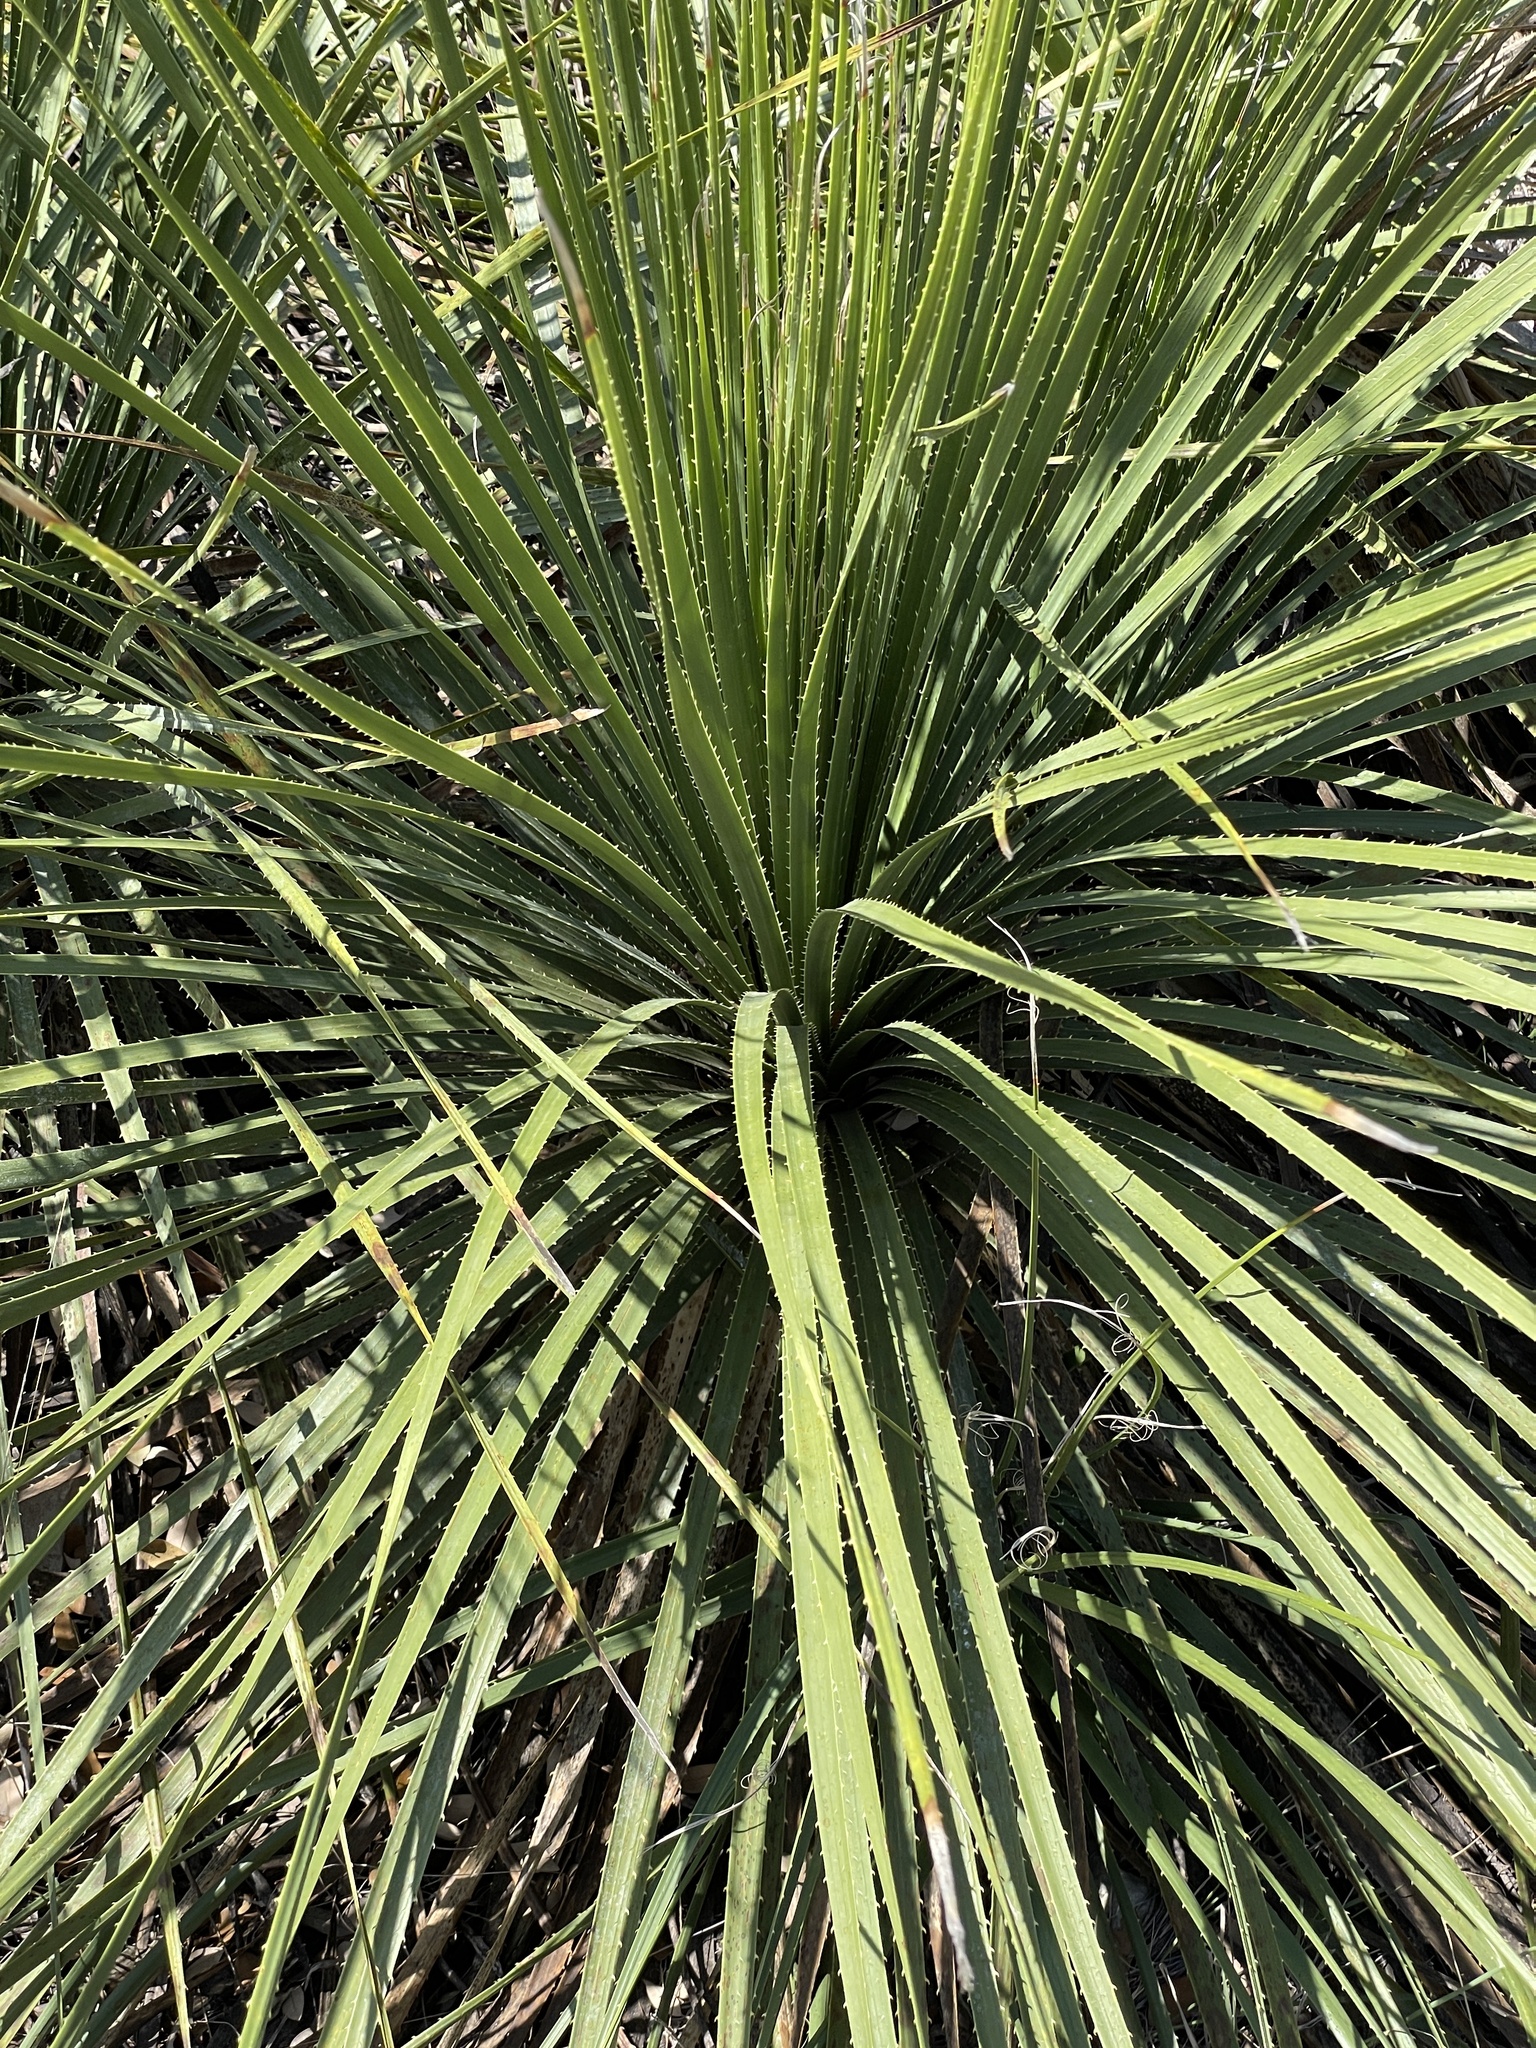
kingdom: Plantae
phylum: Tracheophyta
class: Liliopsida
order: Asparagales
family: Asparagaceae
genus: Dasylirion
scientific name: Dasylirion texanum
